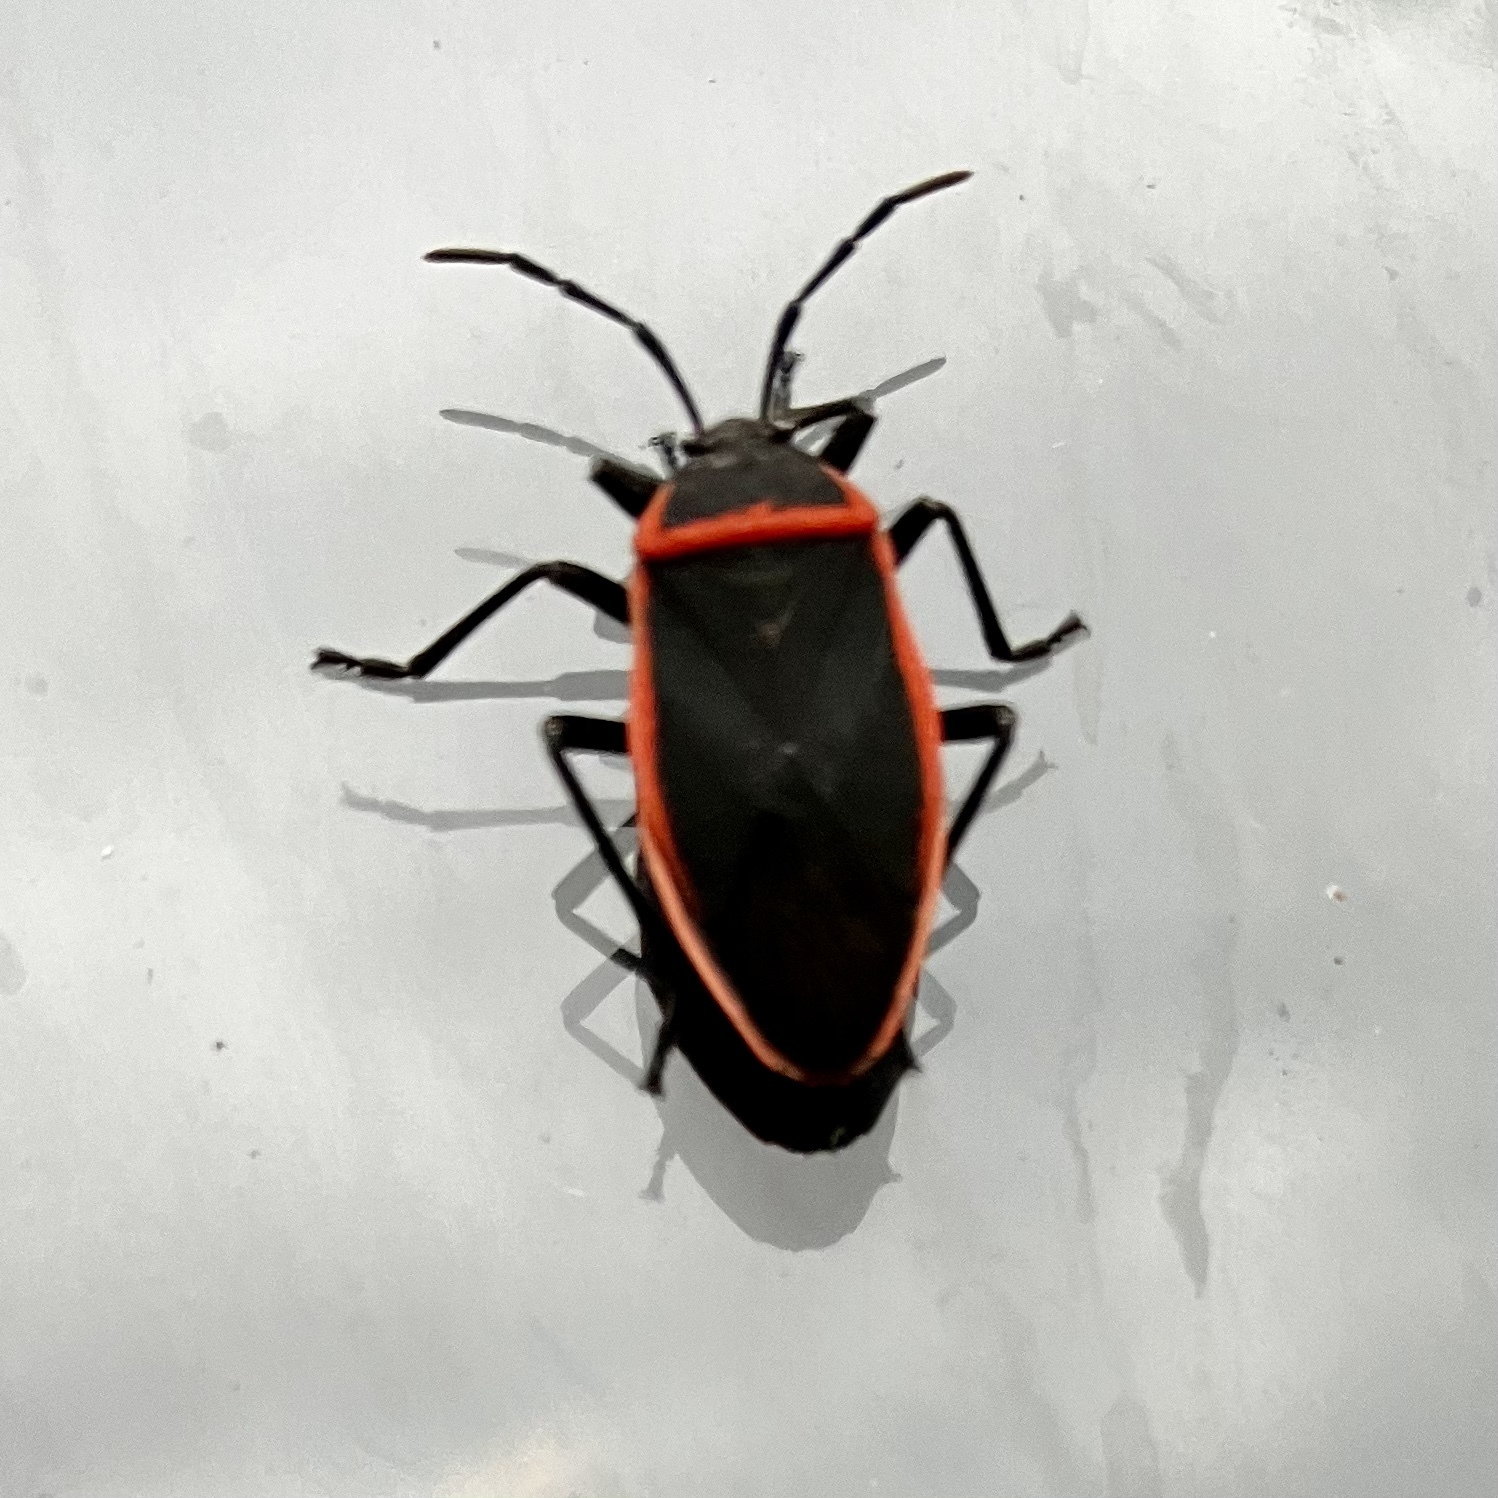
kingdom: Animalia
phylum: Arthropoda
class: Insecta
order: Hemiptera
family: Largidae
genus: Largus
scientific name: Largus cinctus
